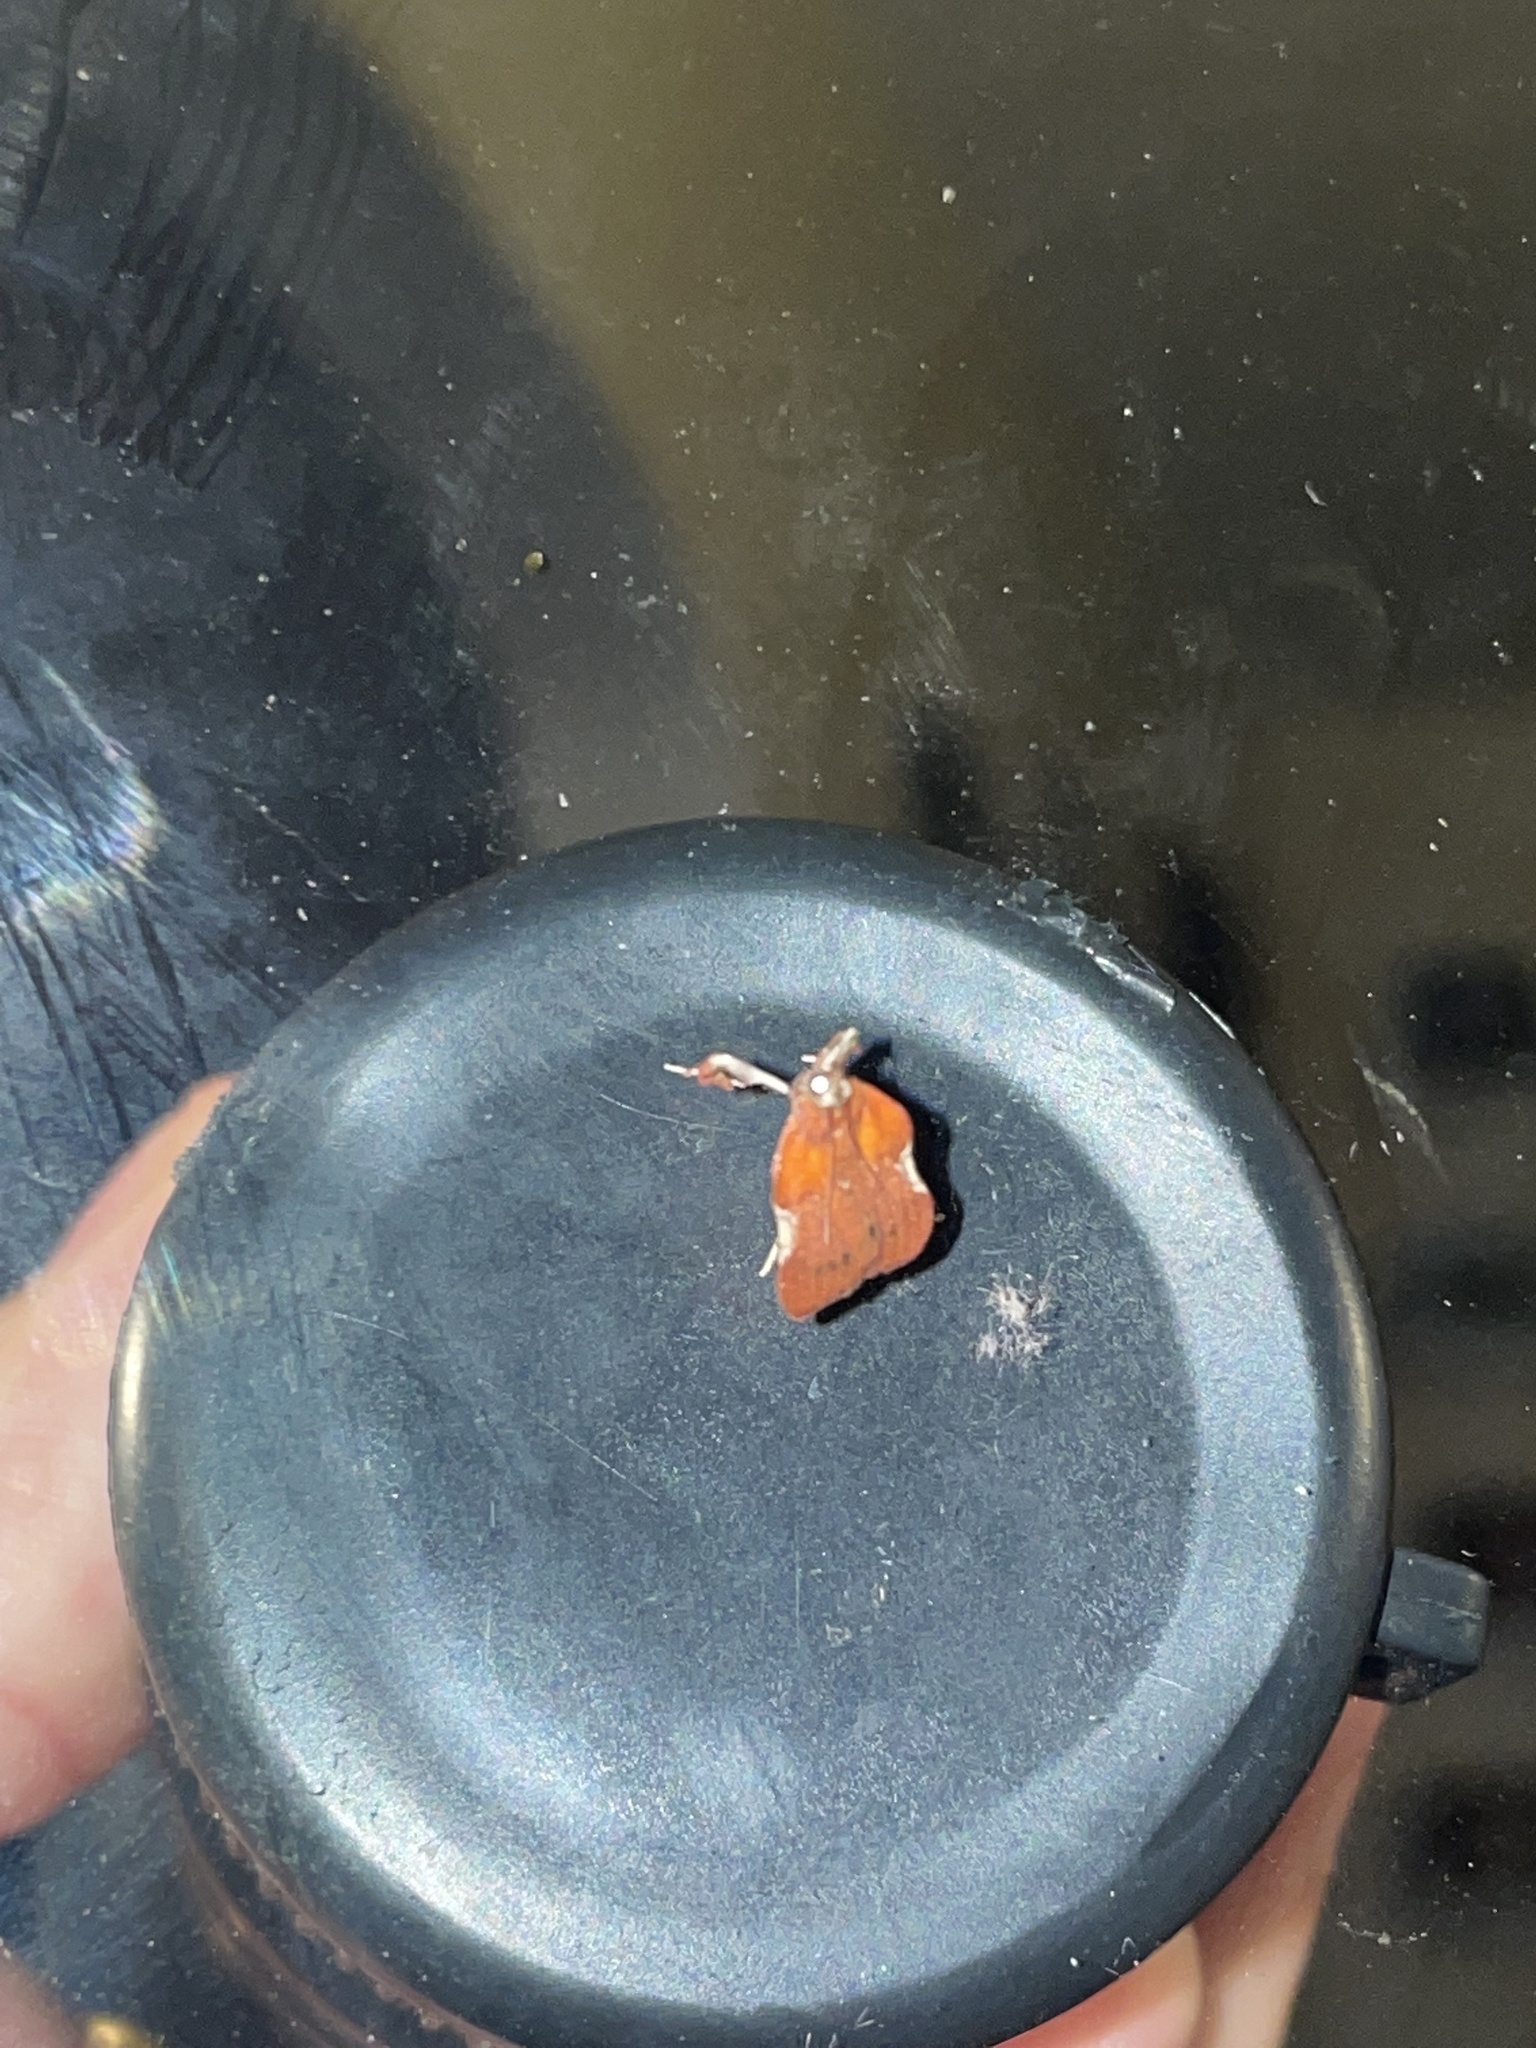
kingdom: Animalia
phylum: Arthropoda
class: Insecta
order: Lepidoptera
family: Pyralidae
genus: Galasa
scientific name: Galasa nigrinodis
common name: Boxwood leaftier moth
